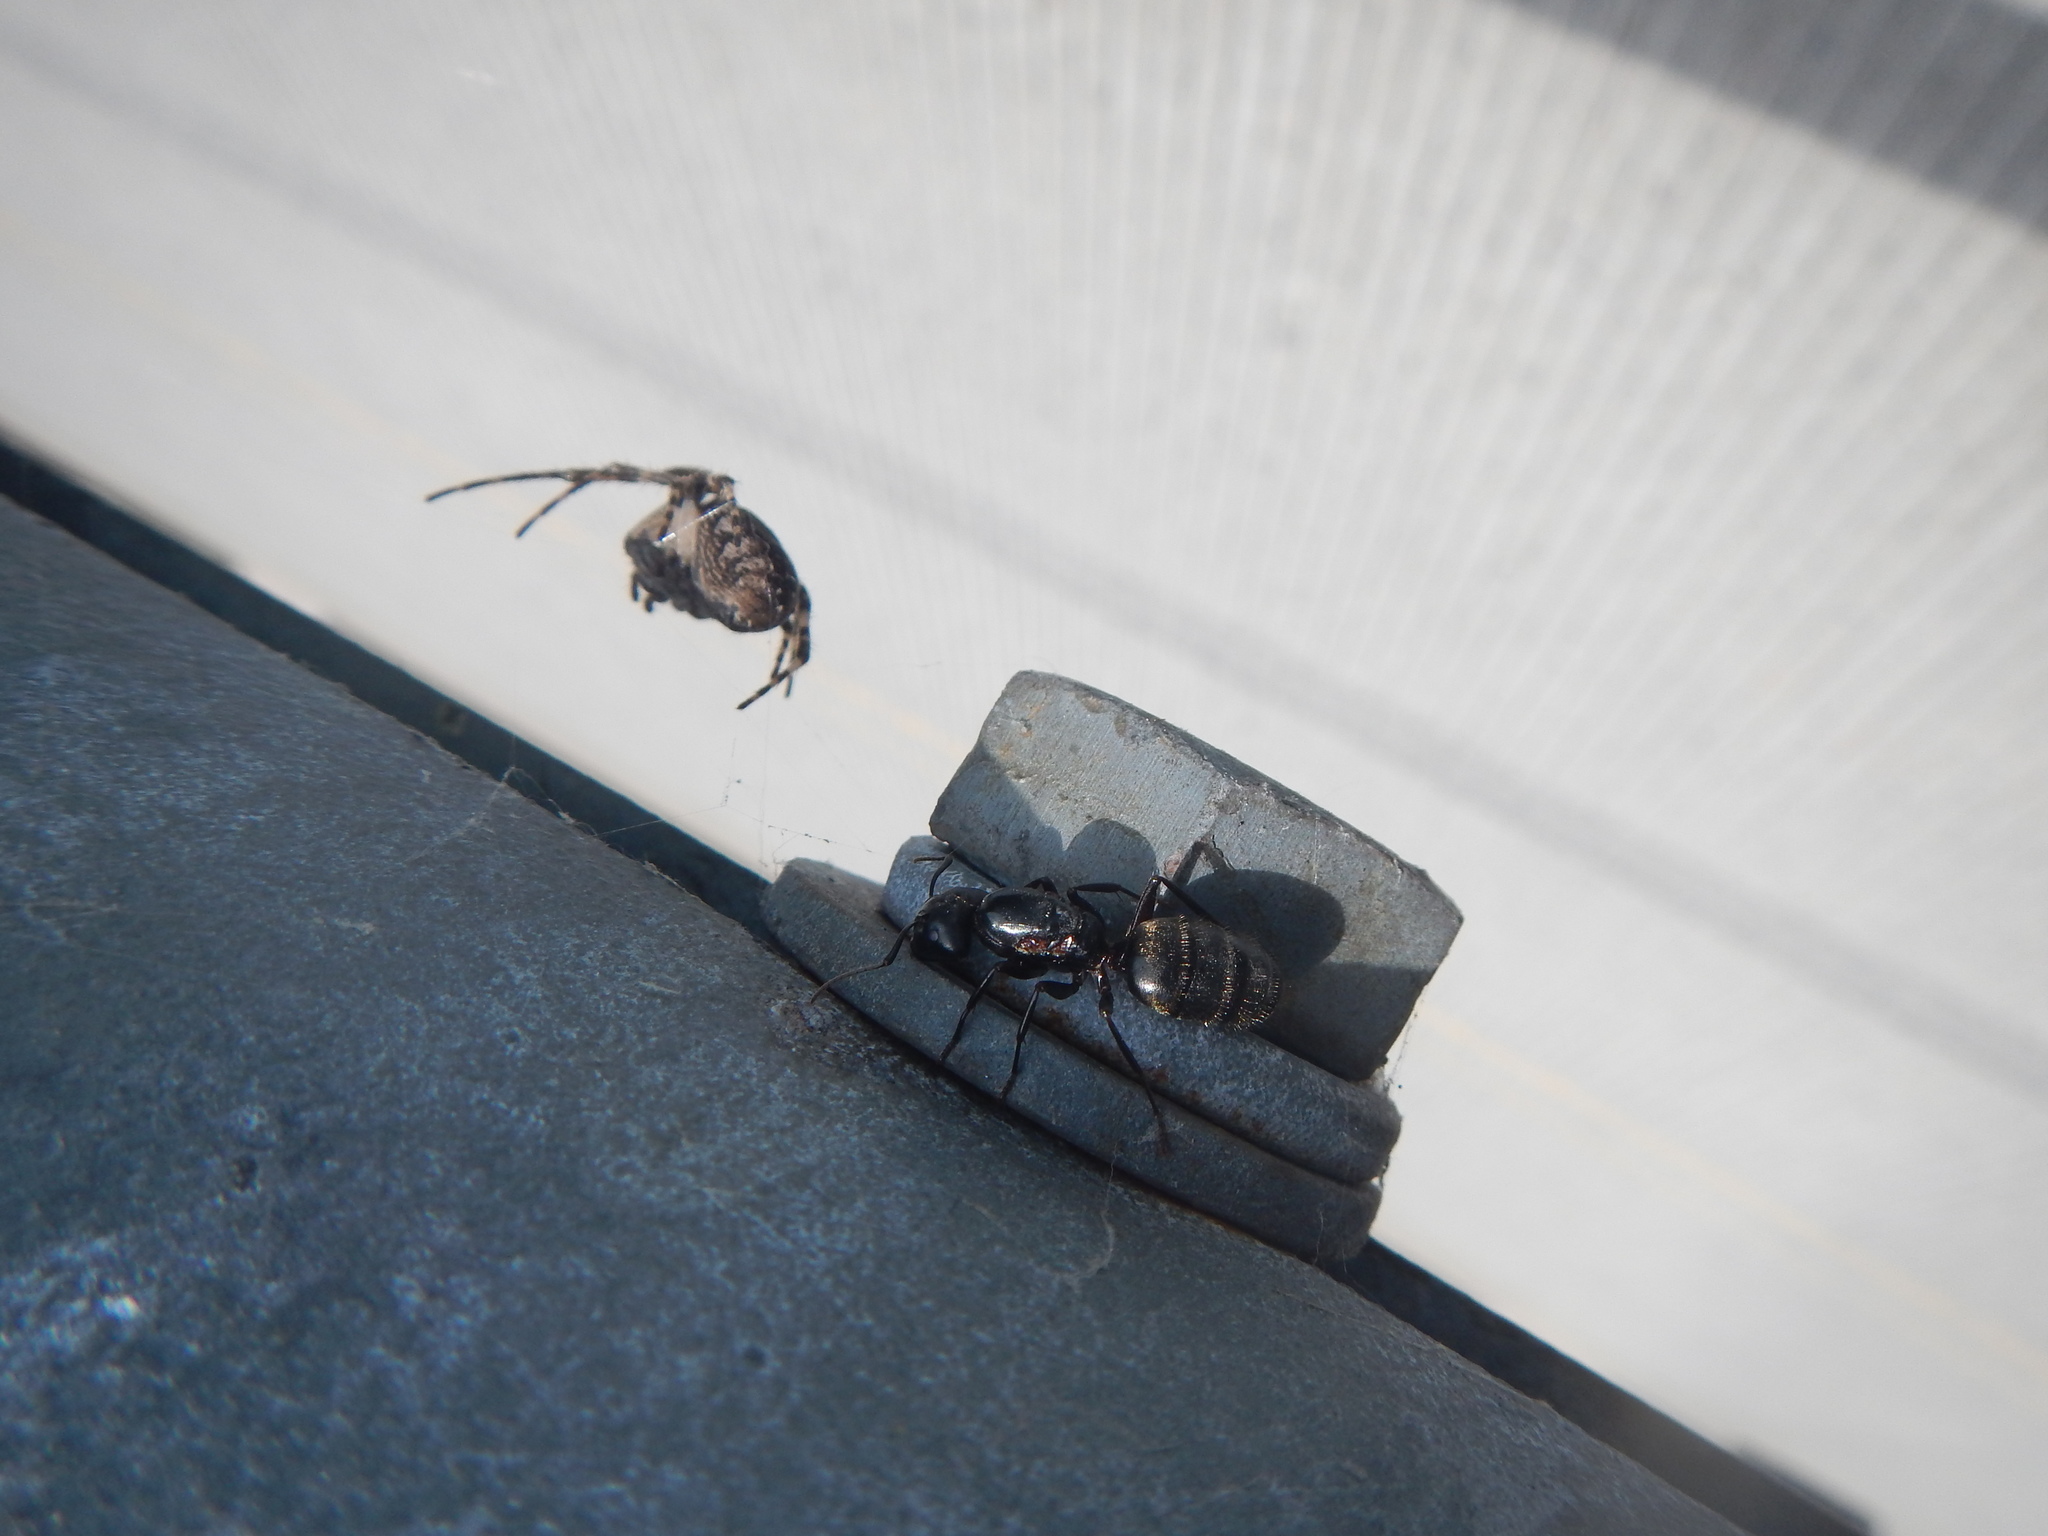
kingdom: Animalia
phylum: Arthropoda
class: Insecta
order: Hymenoptera
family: Formicidae
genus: Camponotus
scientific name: Camponotus pennsylvanicus
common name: Black carpenter ant
